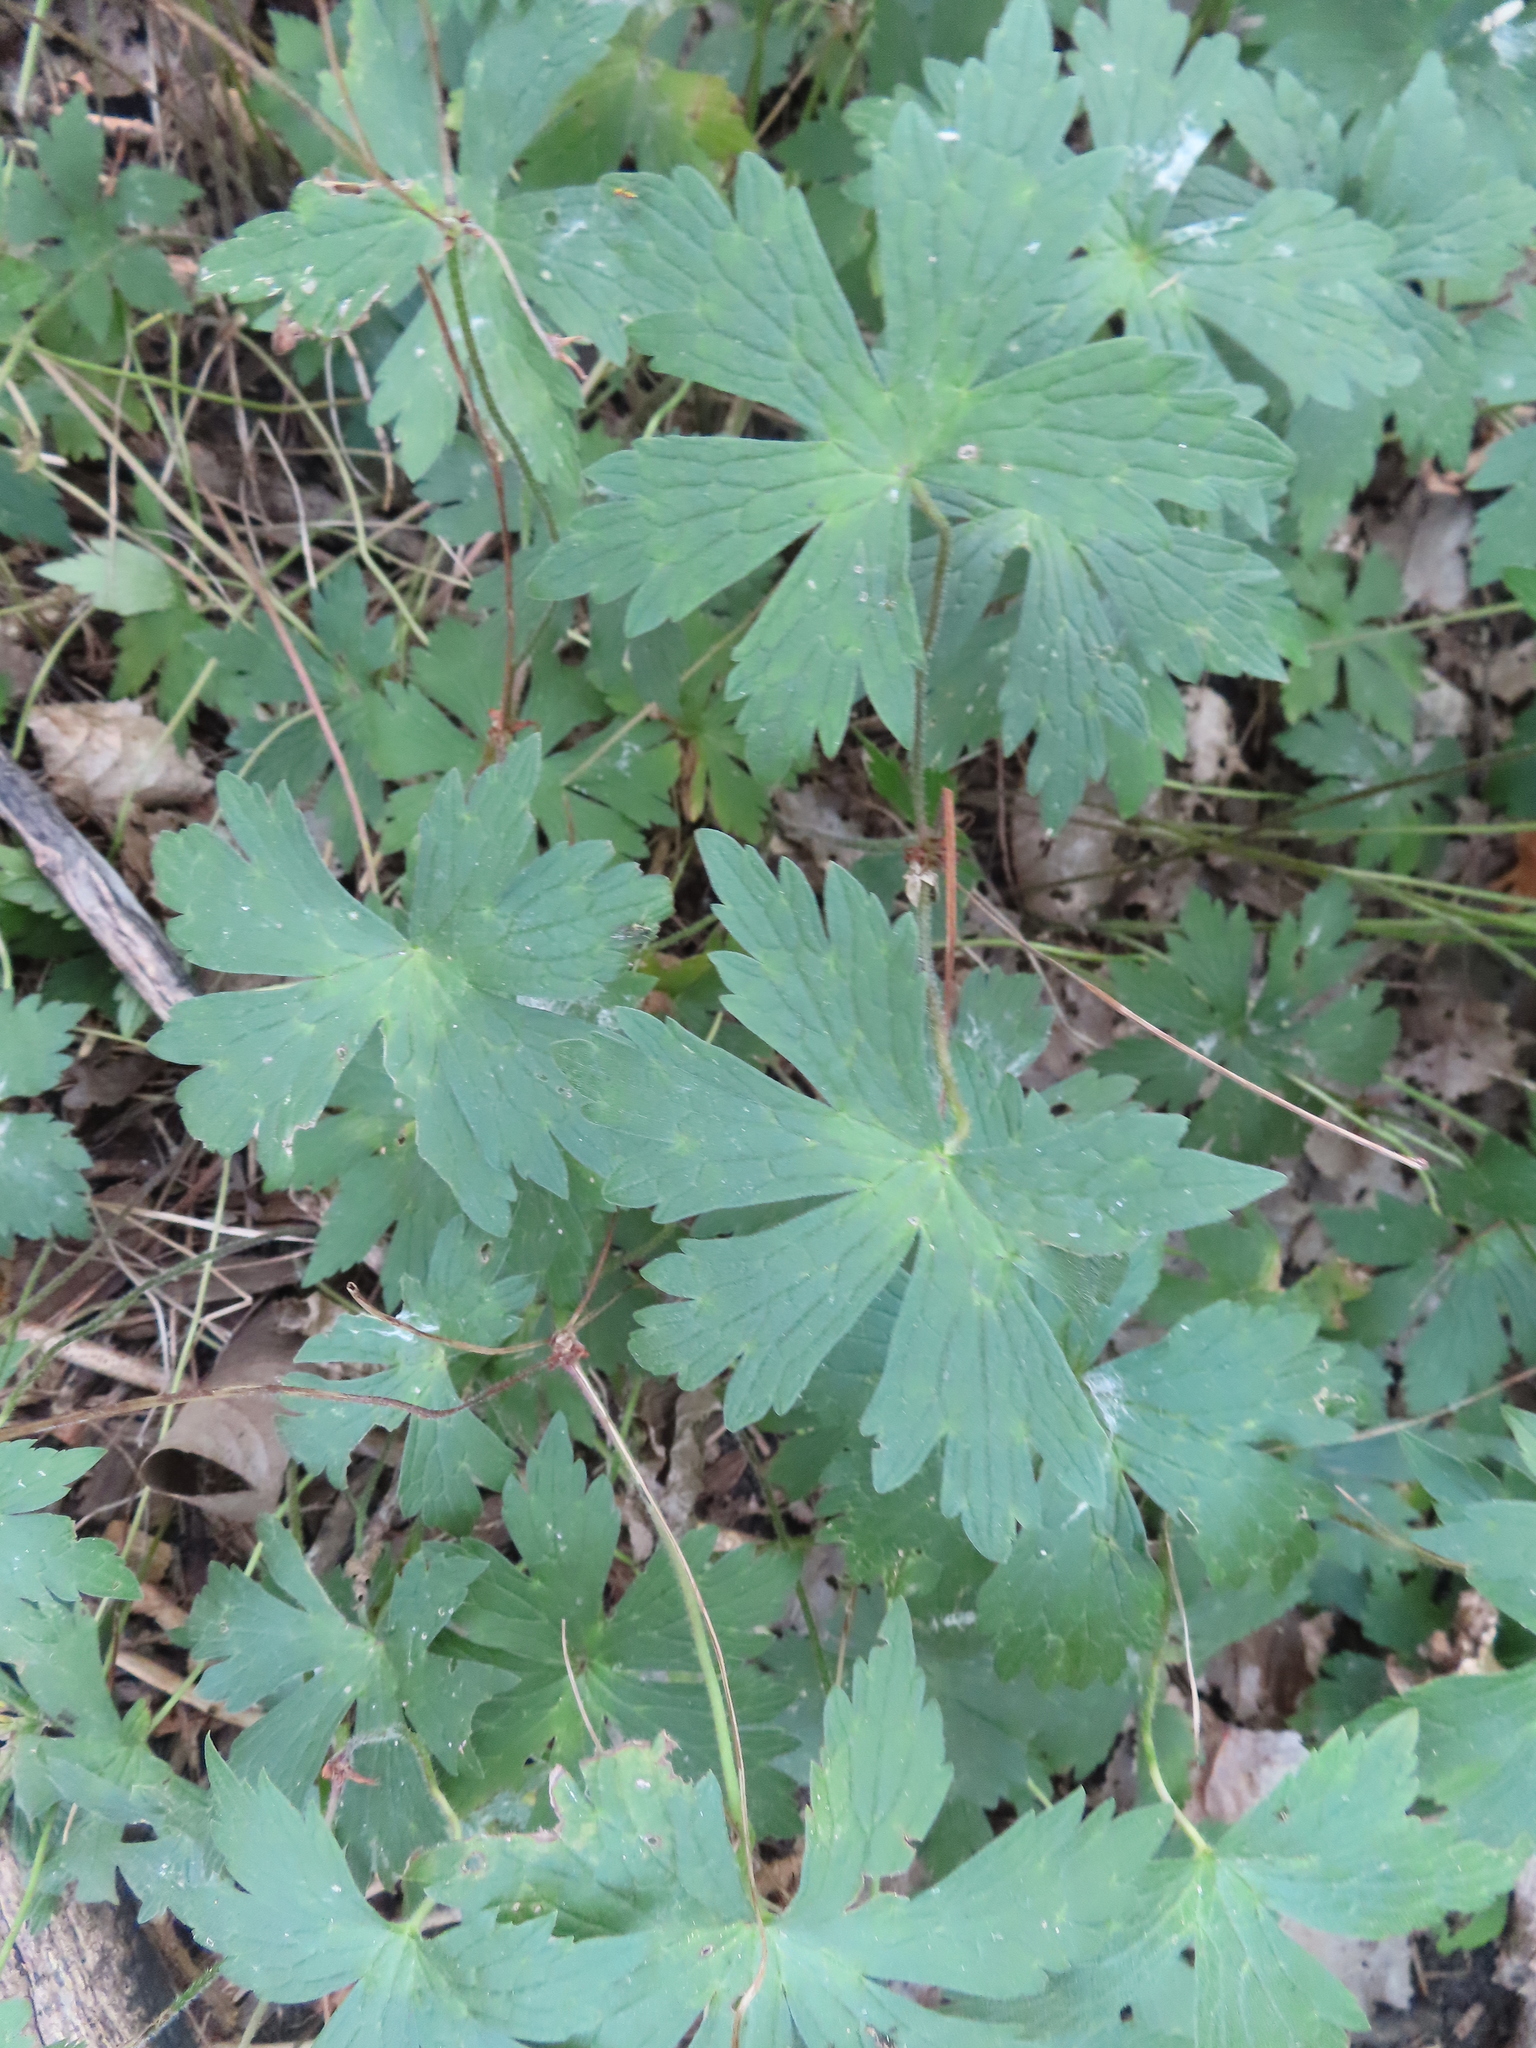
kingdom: Plantae
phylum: Tracheophyta
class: Magnoliopsida
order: Geraniales
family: Geraniaceae
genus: Geranium
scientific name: Geranium maculatum
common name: Spotted geranium
